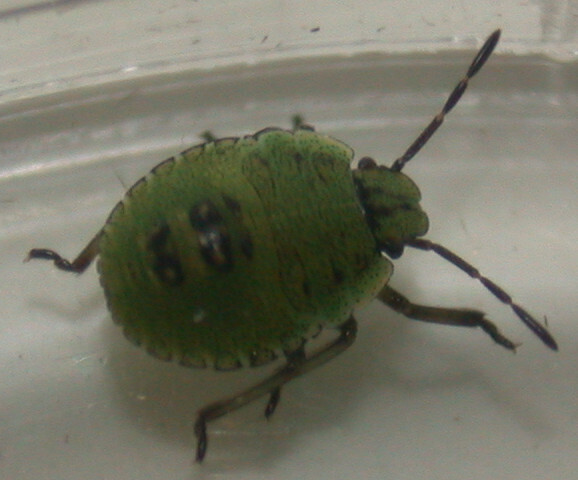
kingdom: Animalia
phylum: Arthropoda
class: Insecta
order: Hemiptera
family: Pentatomidae
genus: Palomena
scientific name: Palomena prasina
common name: Green shieldbug
